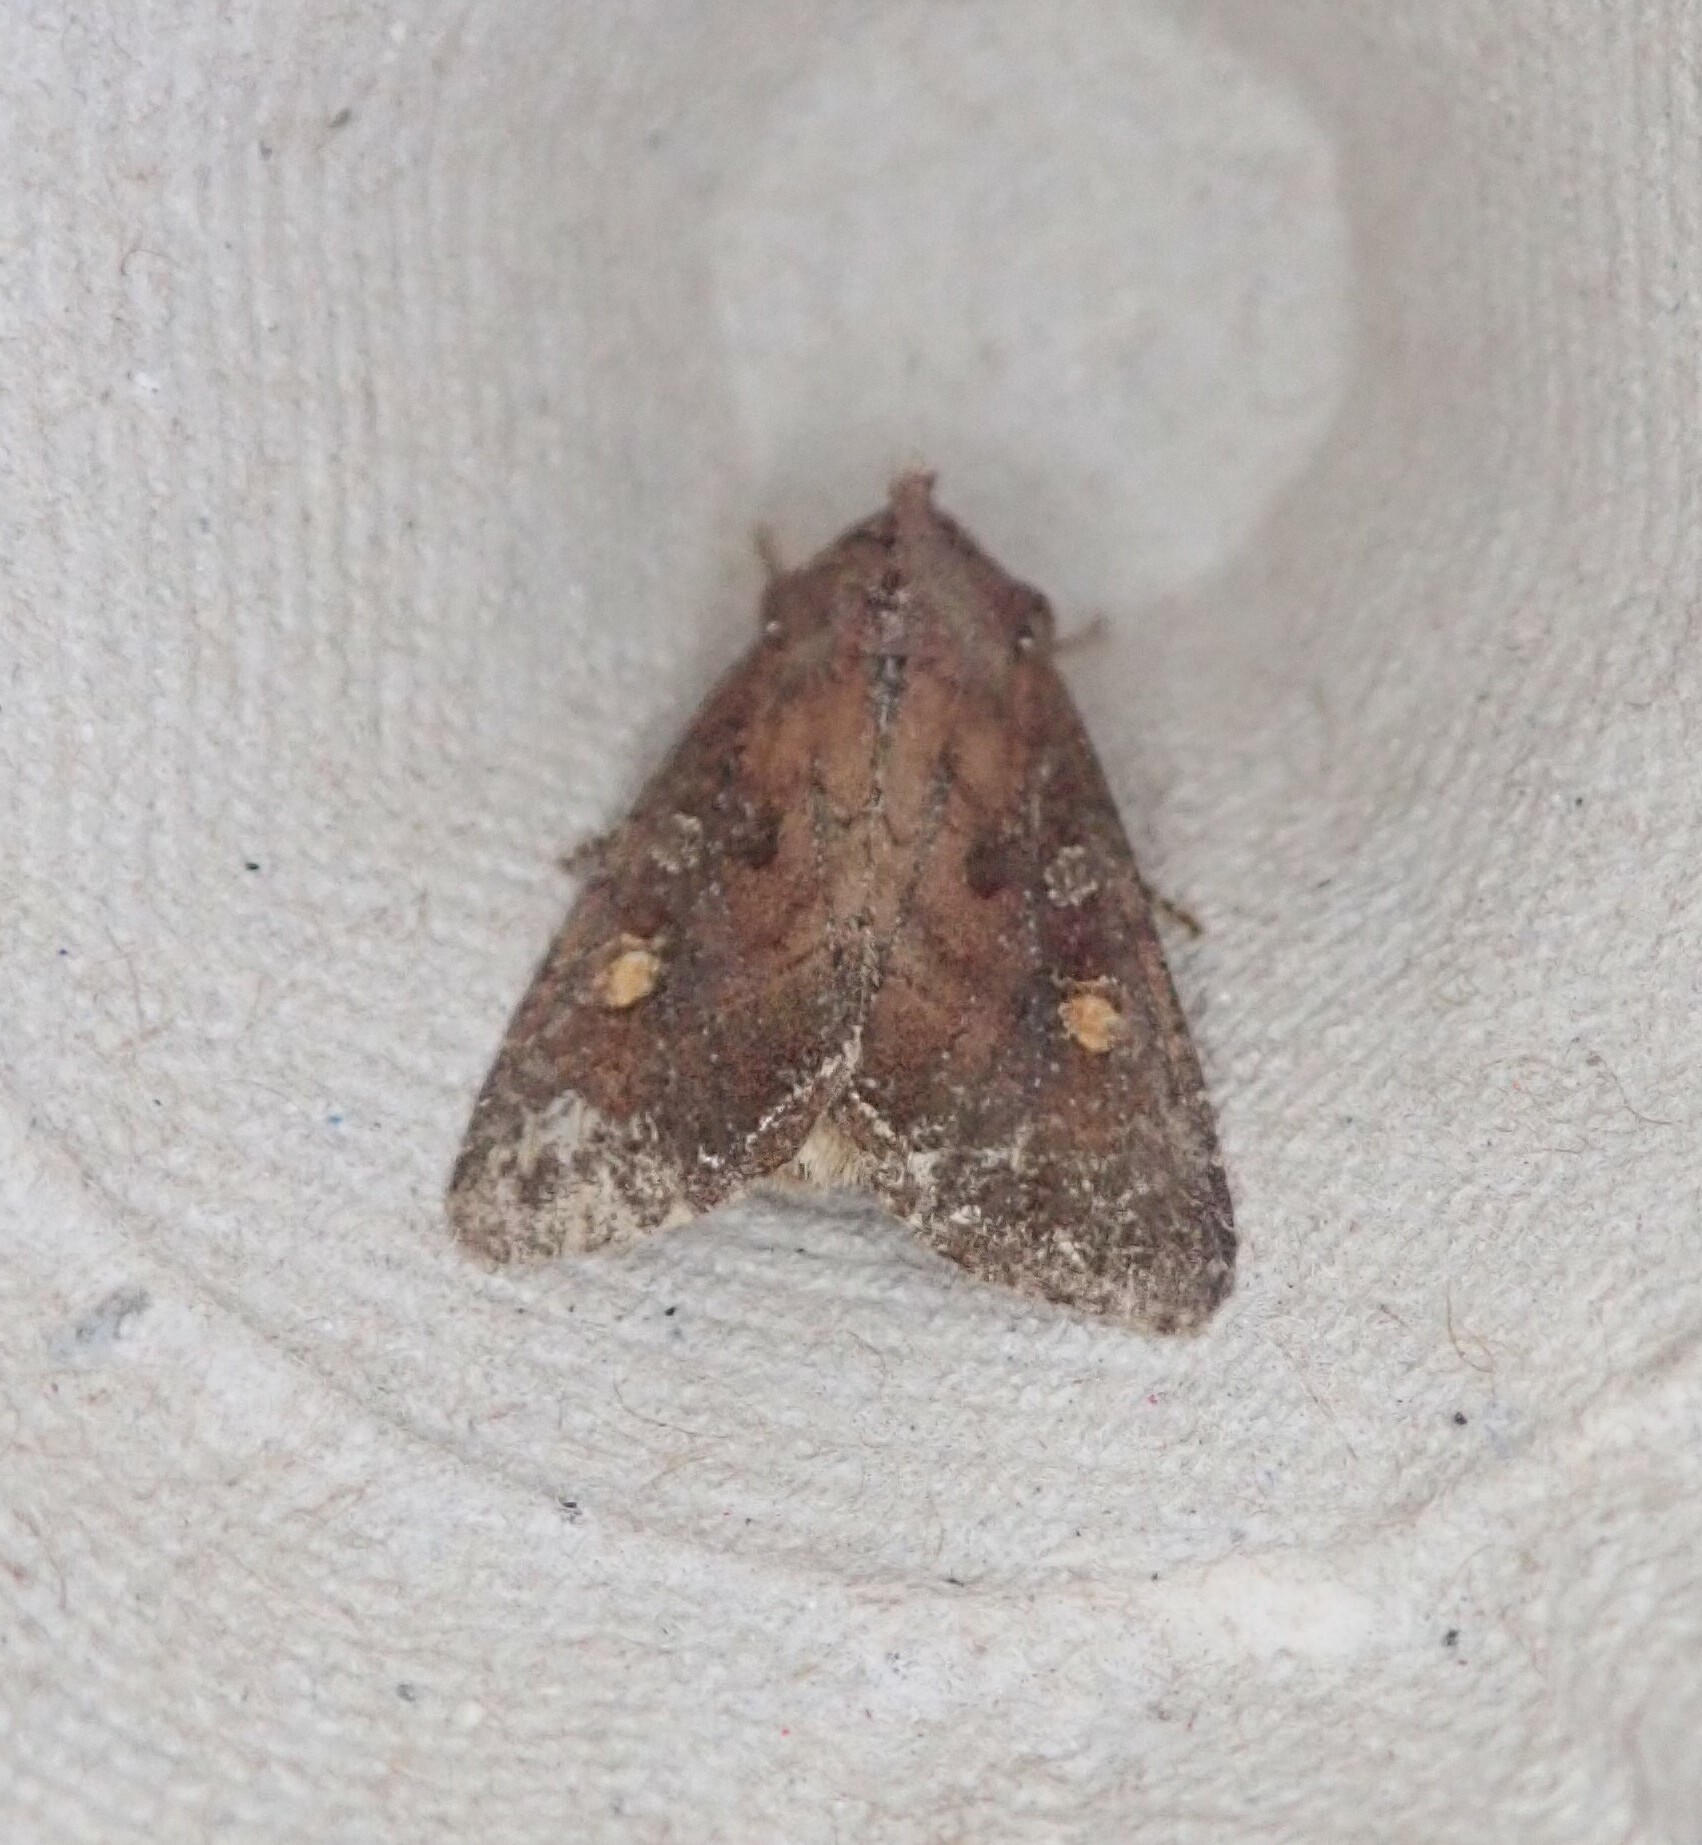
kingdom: Animalia
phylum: Arthropoda
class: Insecta
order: Lepidoptera
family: Noctuidae
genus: Lacanobia
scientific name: Lacanobia oleracea
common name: Bright-line brown-eye
